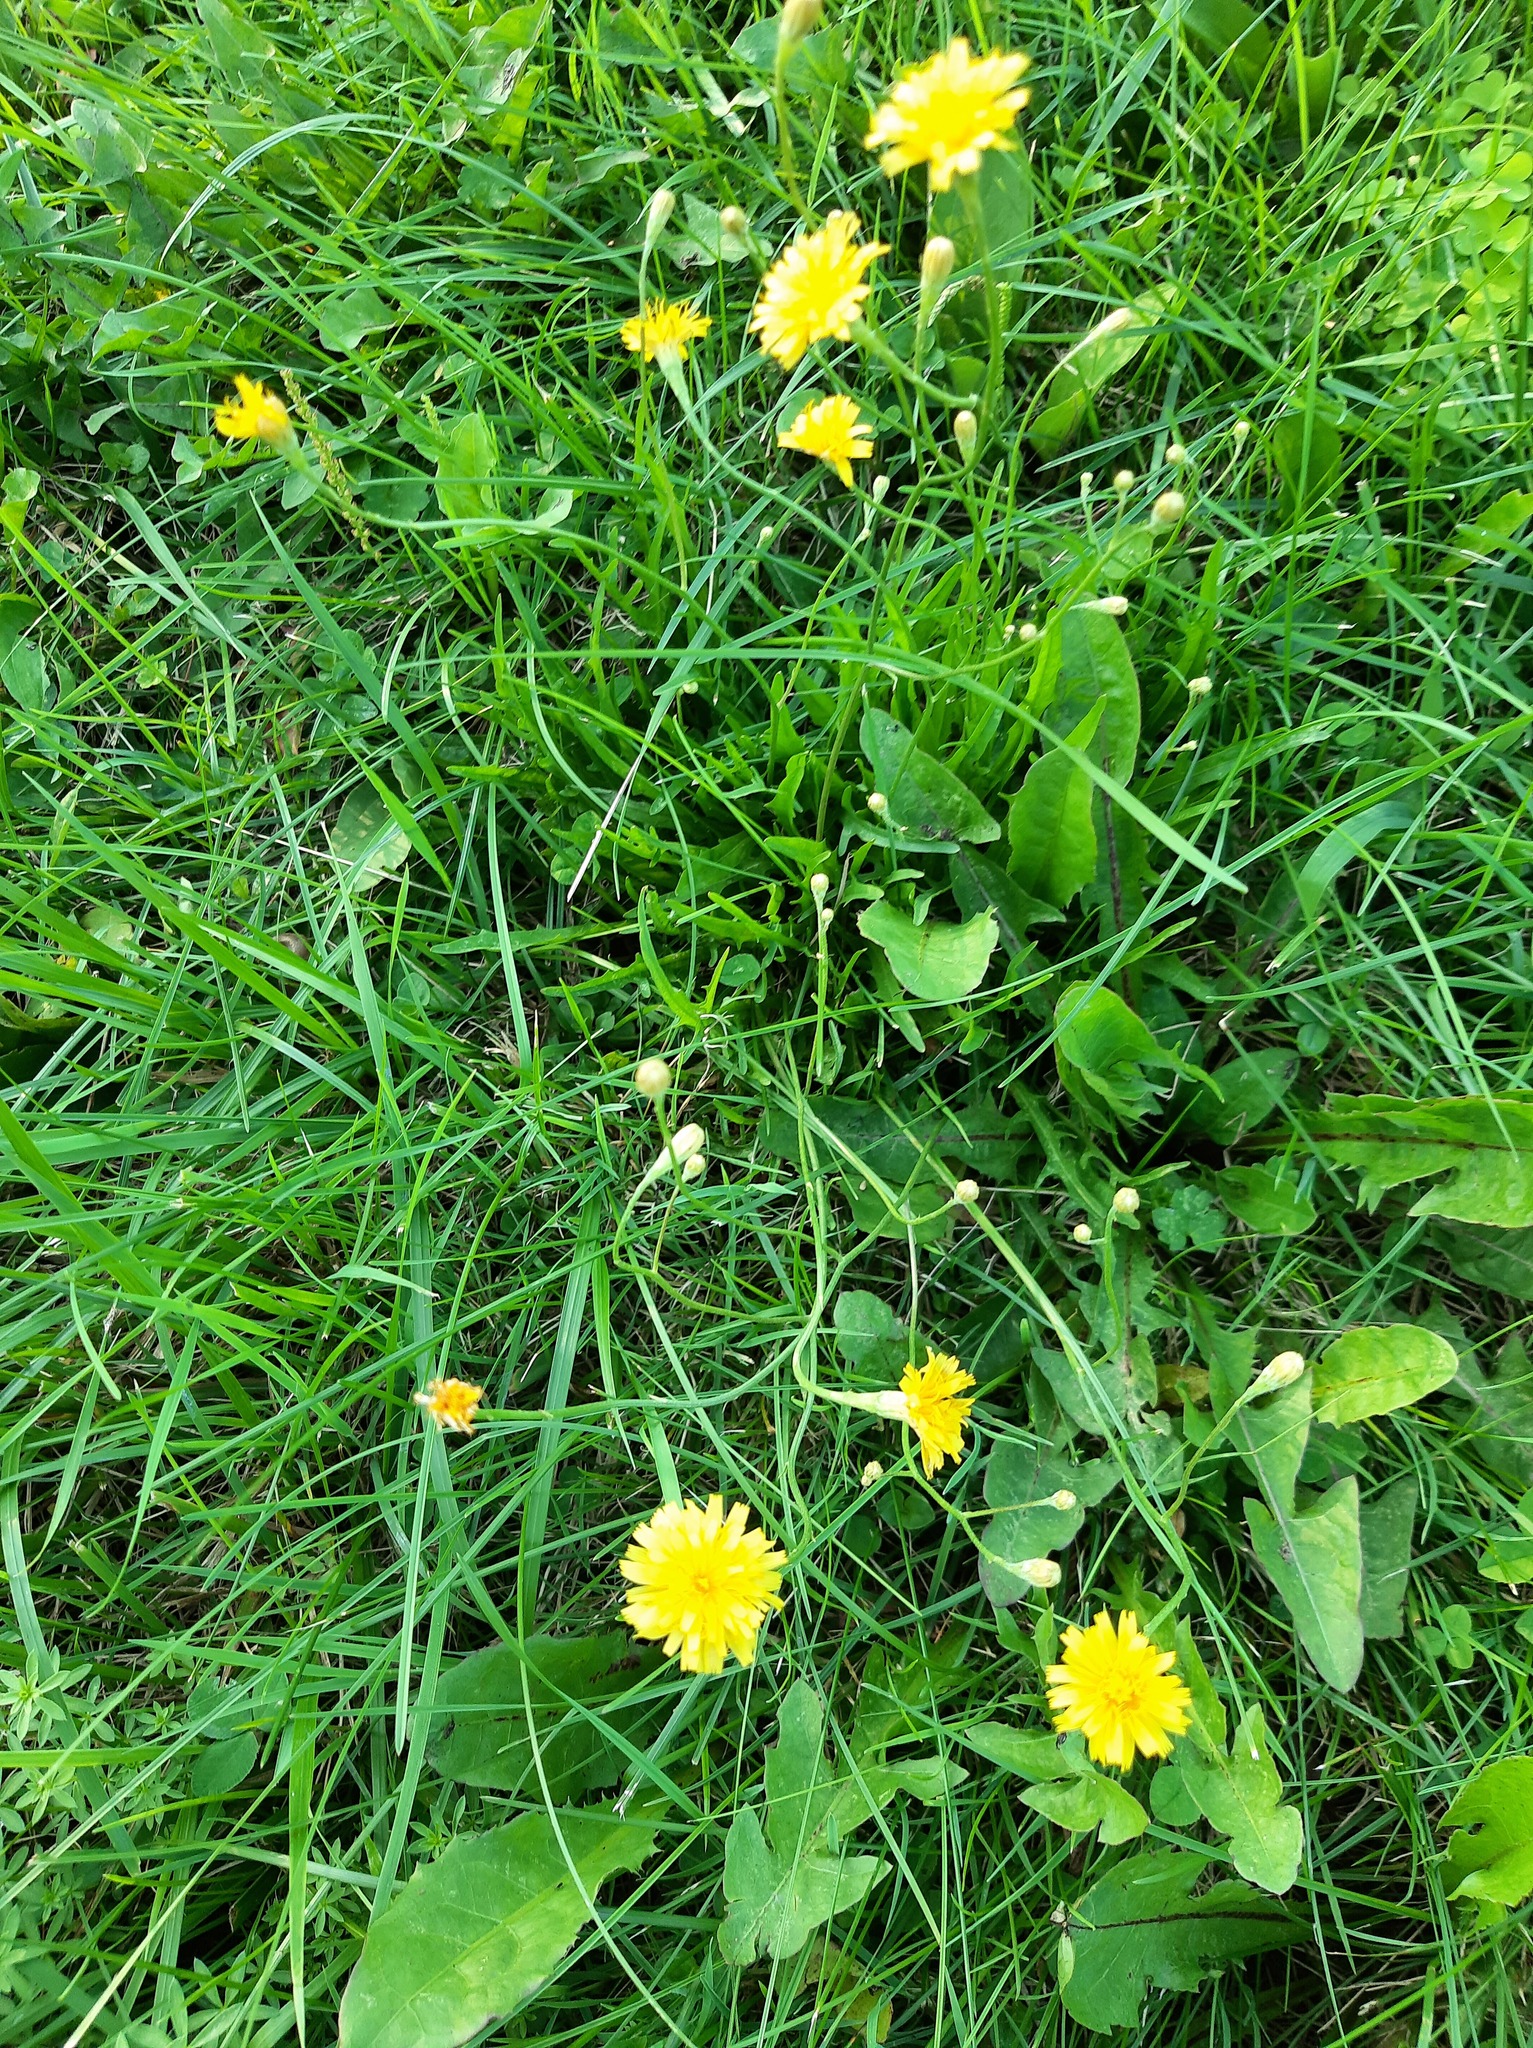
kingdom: Plantae
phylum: Tracheophyta
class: Magnoliopsida
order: Asterales
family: Asteraceae
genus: Scorzoneroides
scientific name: Scorzoneroides autumnalis
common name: Autumn hawkbit
